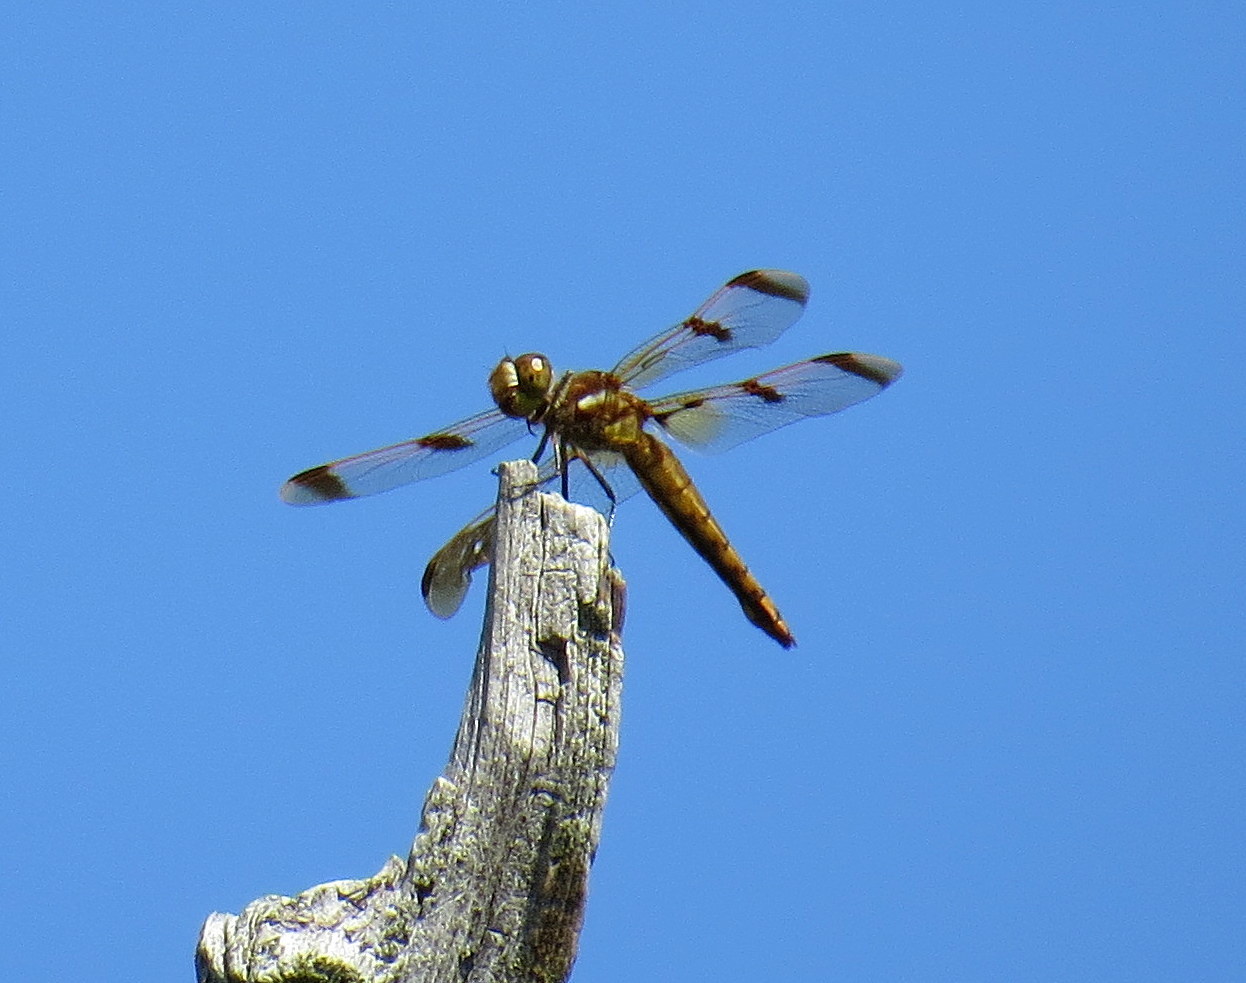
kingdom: Animalia
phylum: Arthropoda
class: Insecta
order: Odonata
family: Libellulidae
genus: Libellula
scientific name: Libellula semifasciata
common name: Painted skimmer
